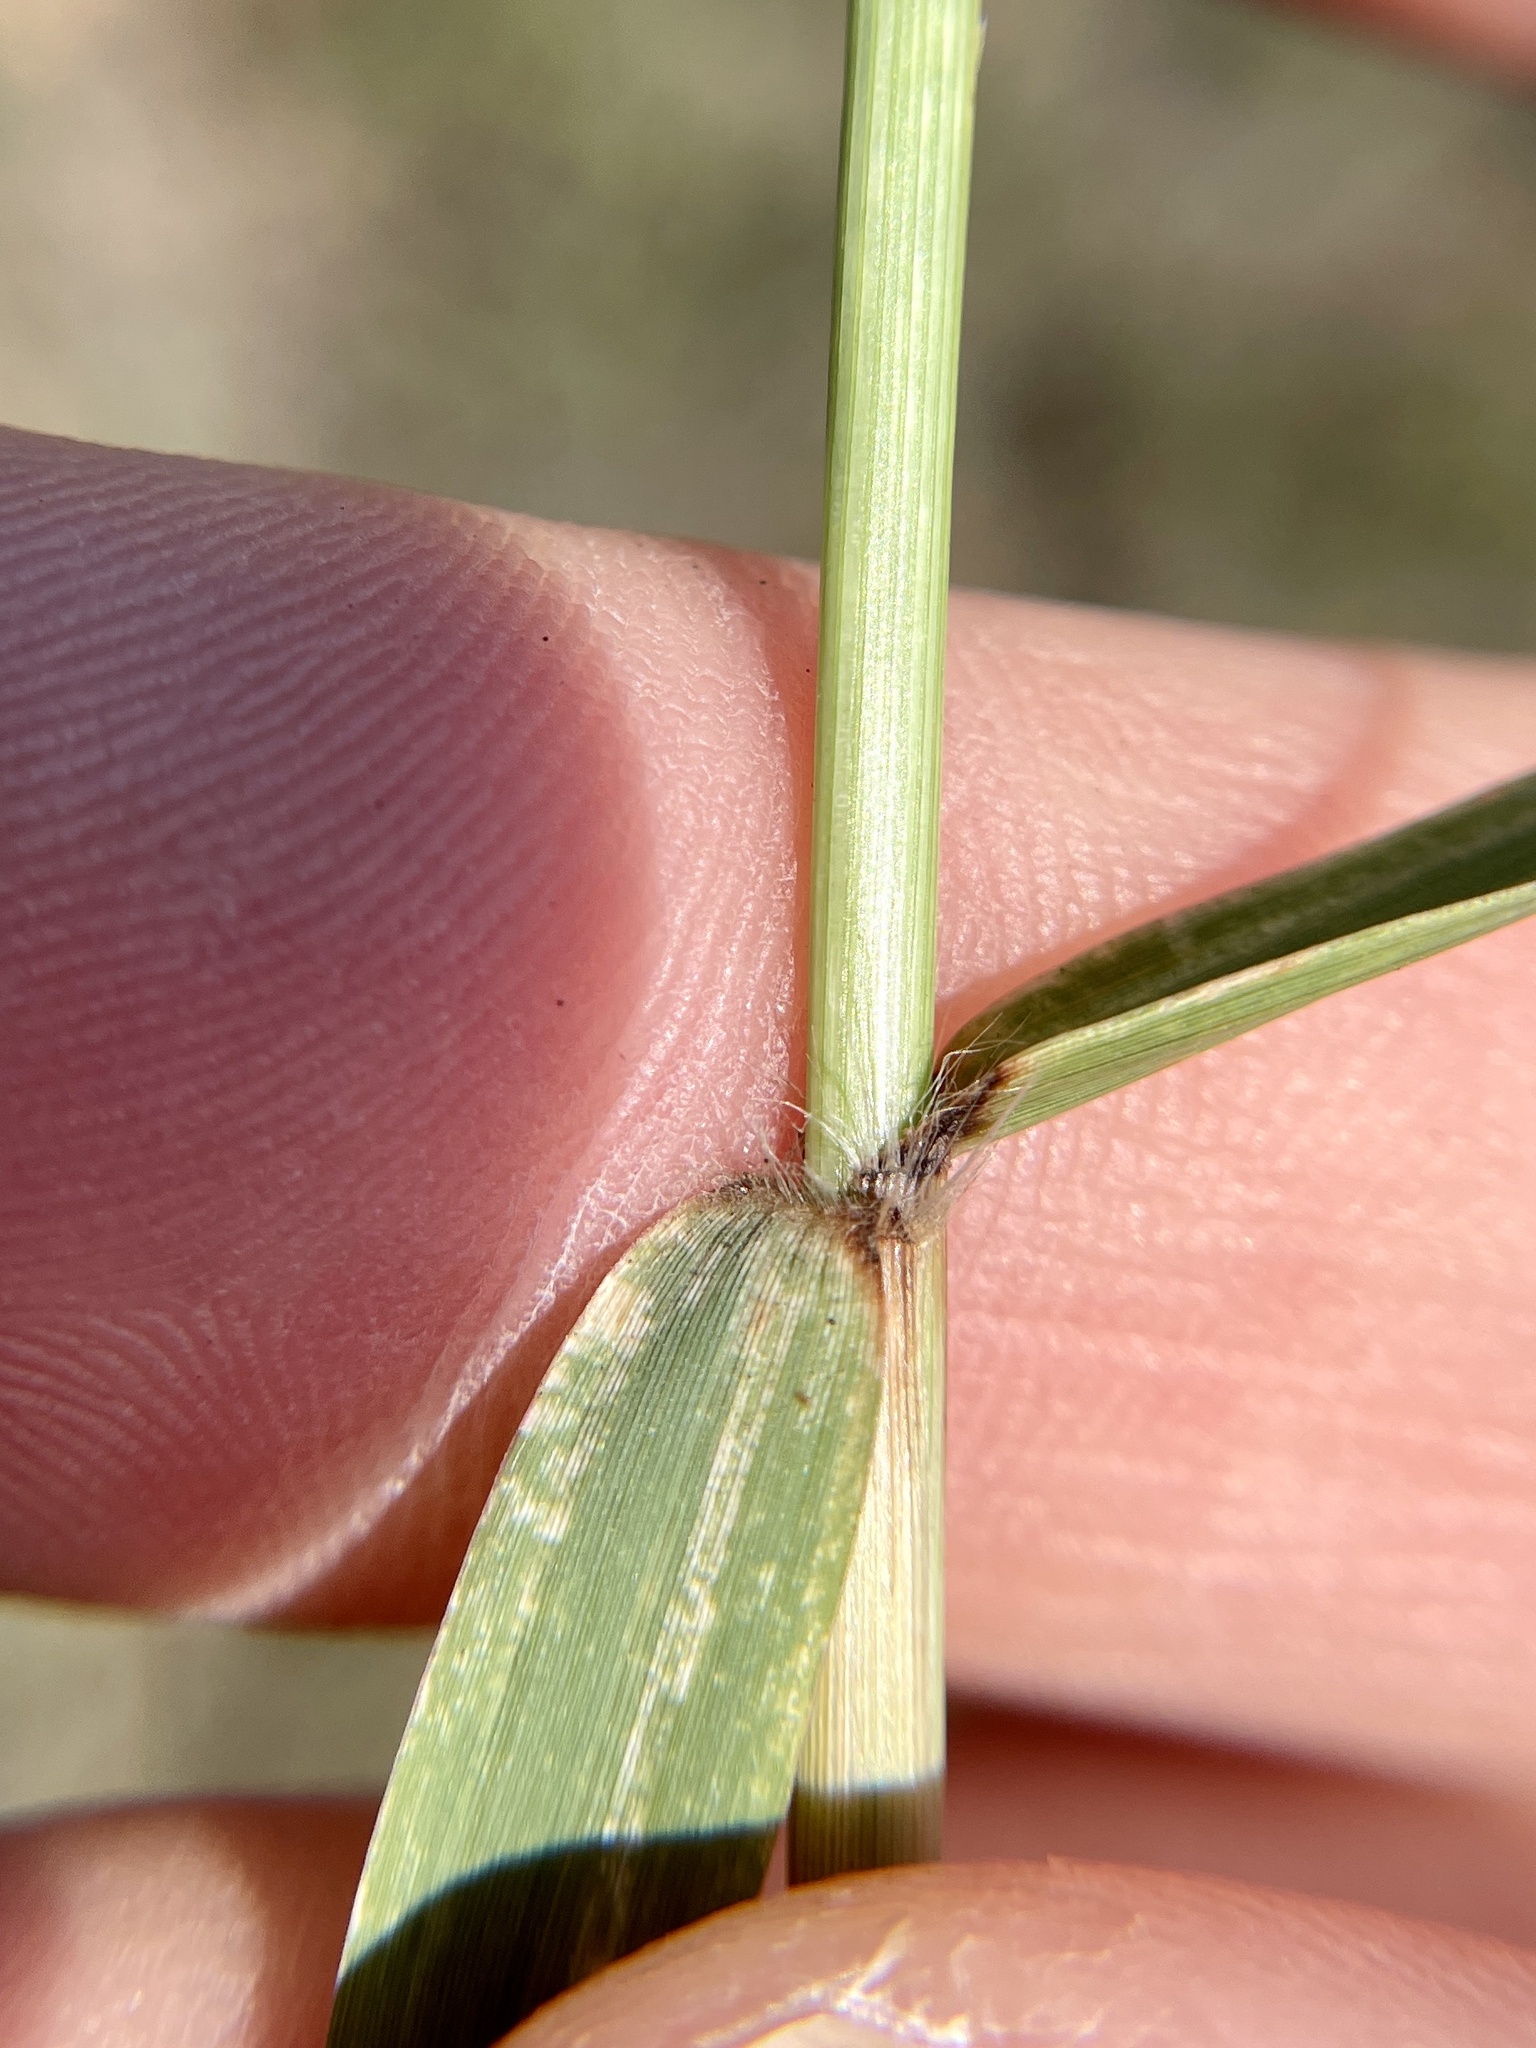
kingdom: Plantae
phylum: Tracheophyta
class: Liliopsida
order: Poales
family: Poaceae
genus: Eragrostis
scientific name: Eragrostis curtipedicellata
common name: Gummy love grass
